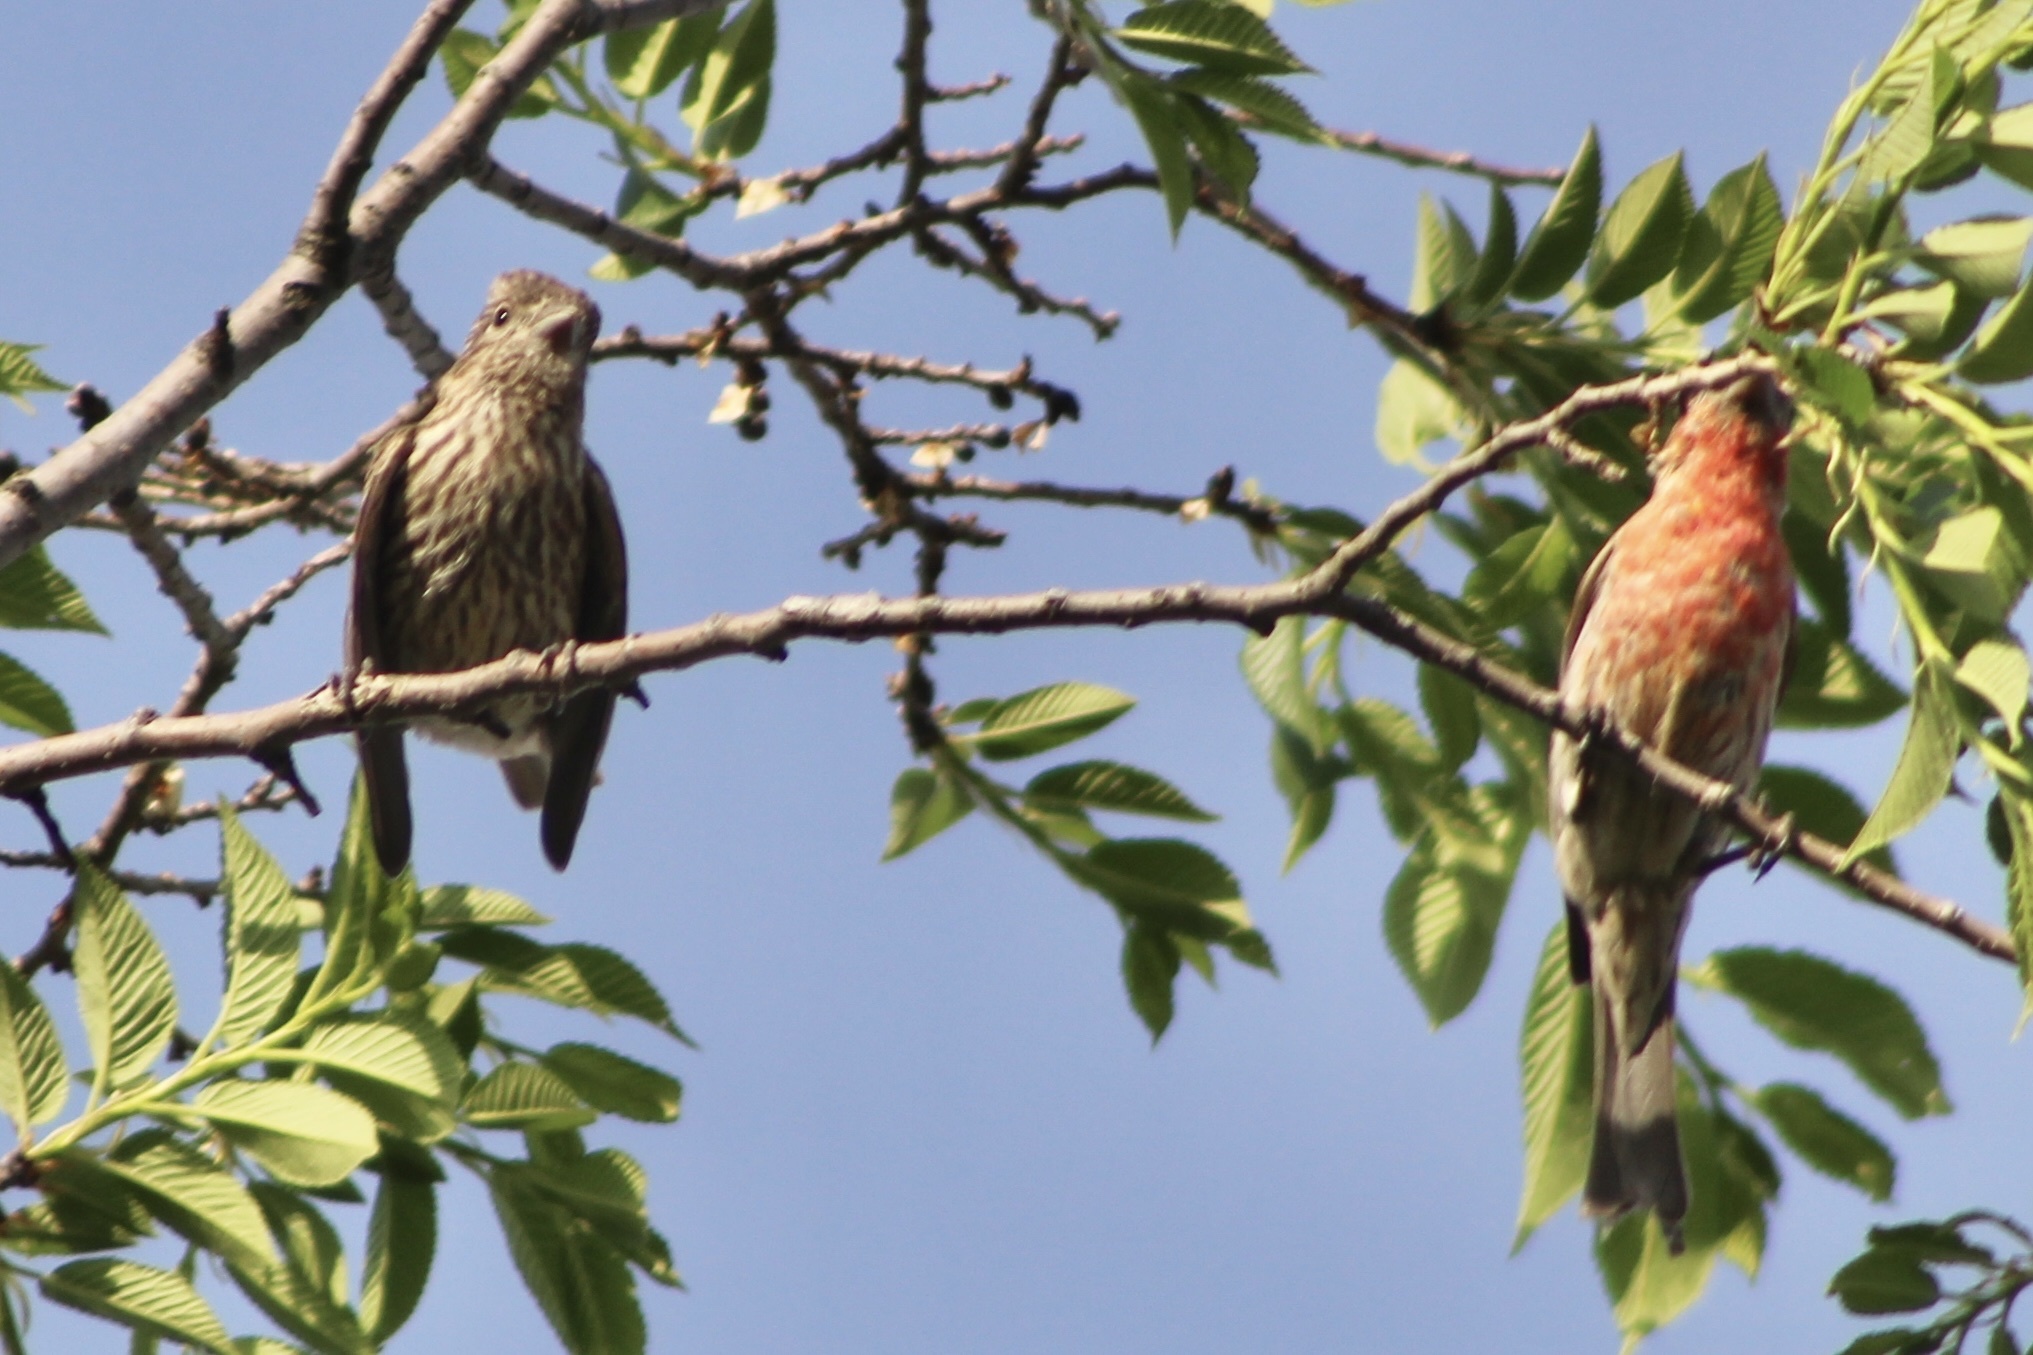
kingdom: Animalia
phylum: Chordata
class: Aves
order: Passeriformes
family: Fringillidae
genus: Haemorhous
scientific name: Haemorhous mexicanus
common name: House finch
